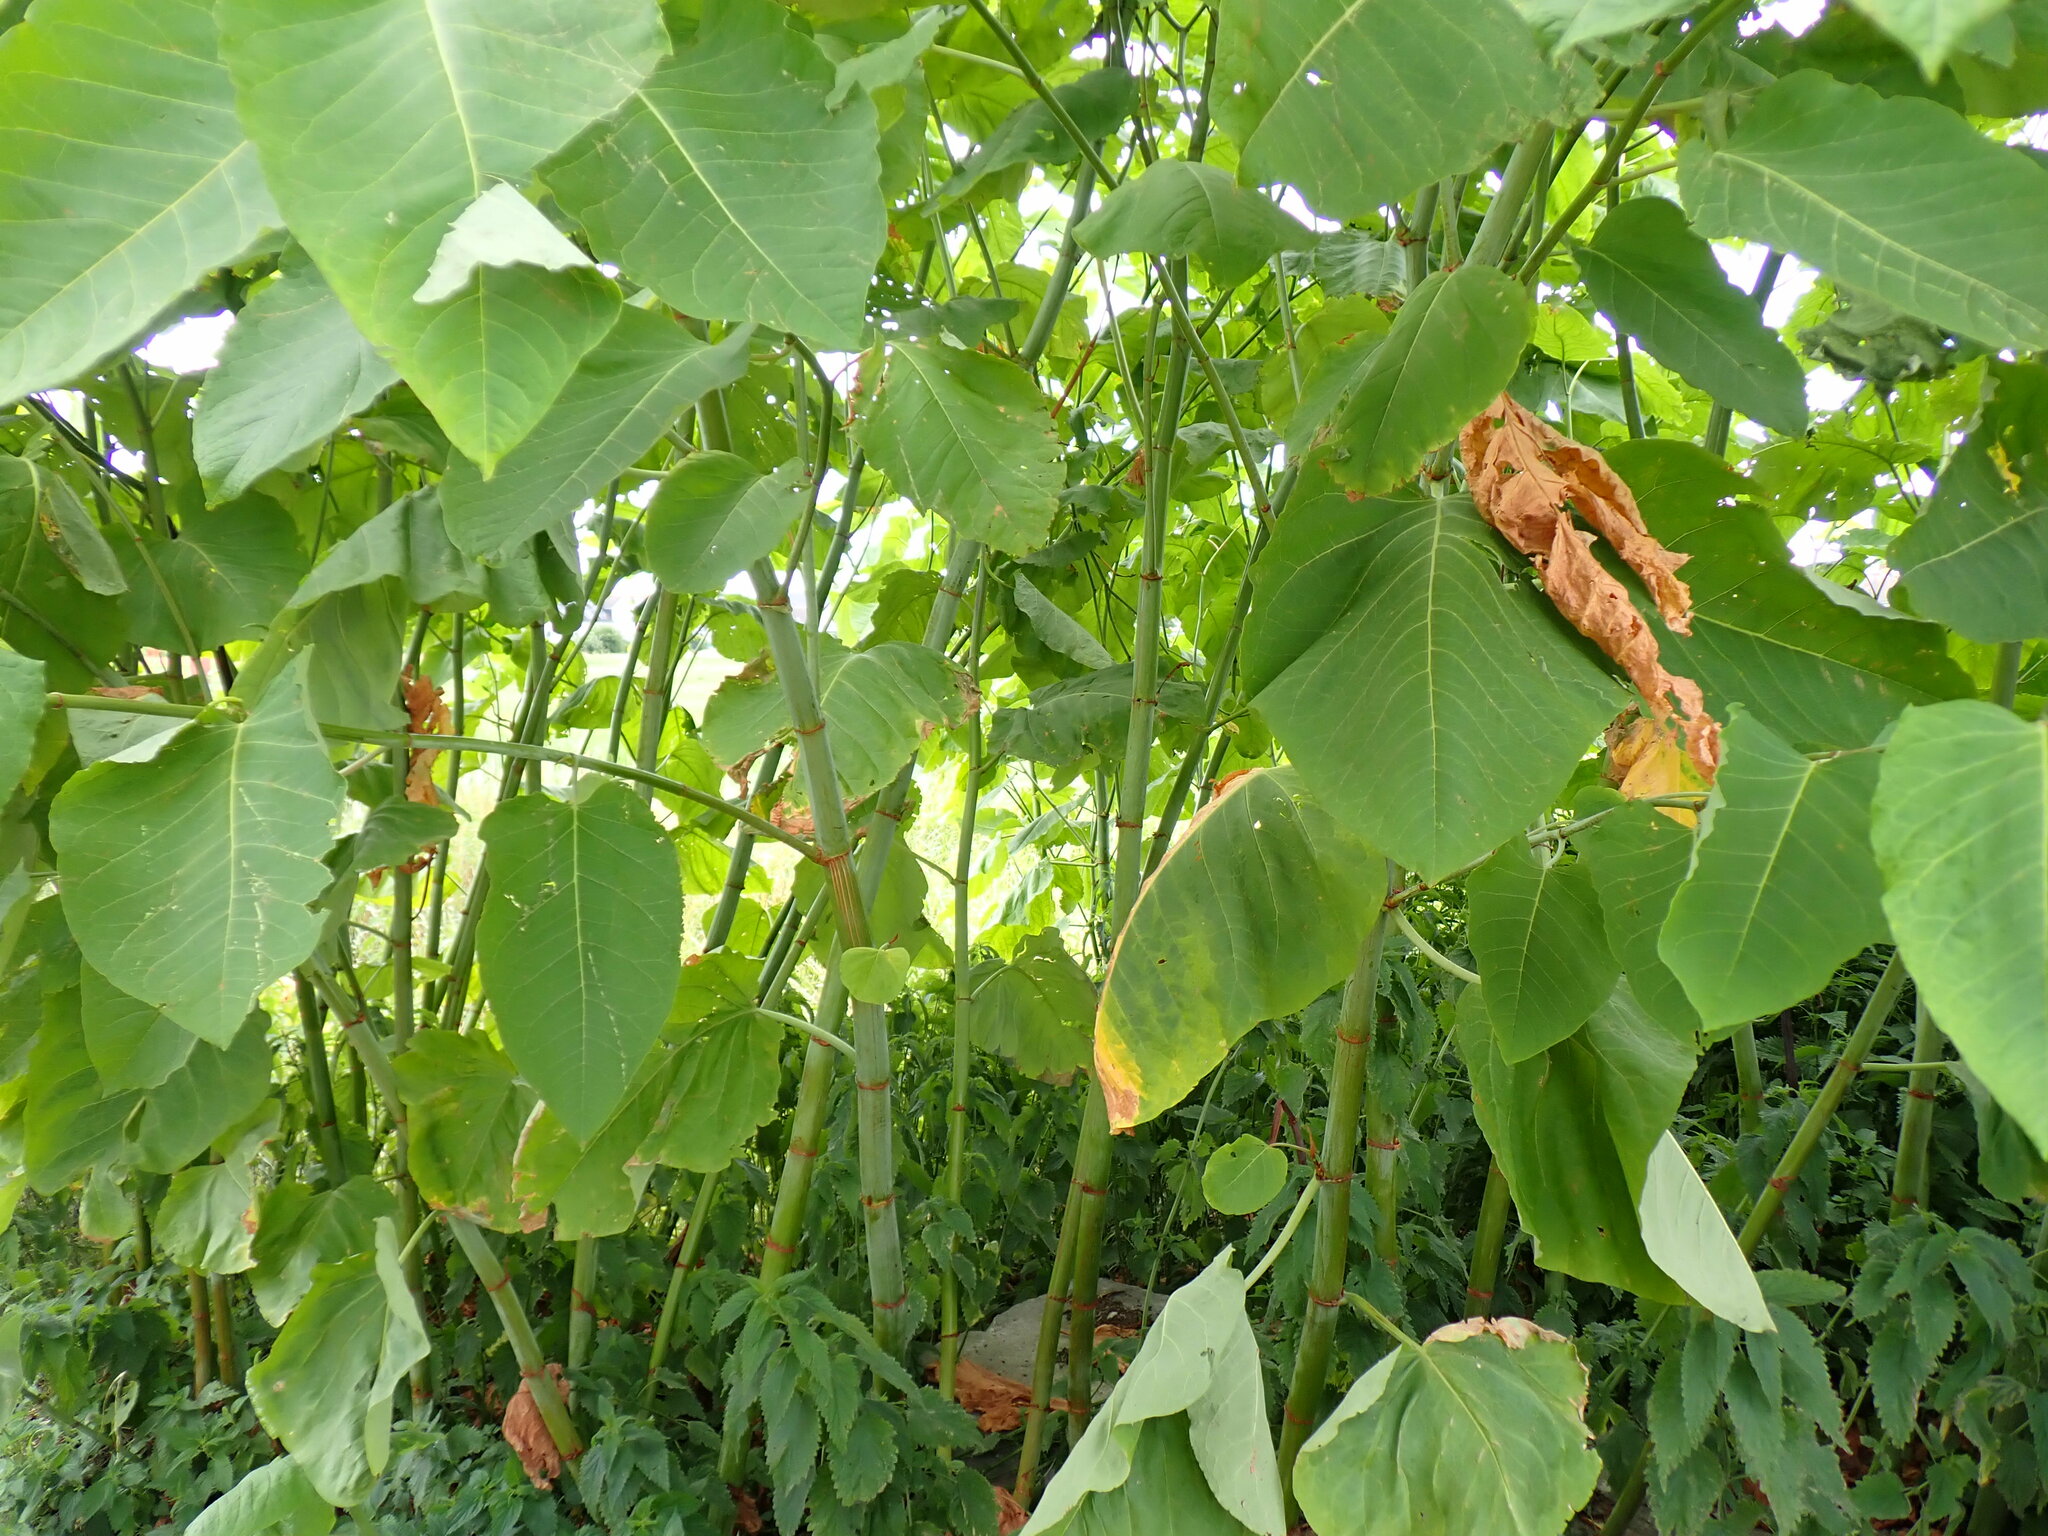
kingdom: Plantae
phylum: Tracheophyta
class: Magnoliopsida
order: Caryophyllales
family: Polygonaceae
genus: Reynoutria
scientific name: Reynoutria sachalinensis
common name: Giant knotweed
